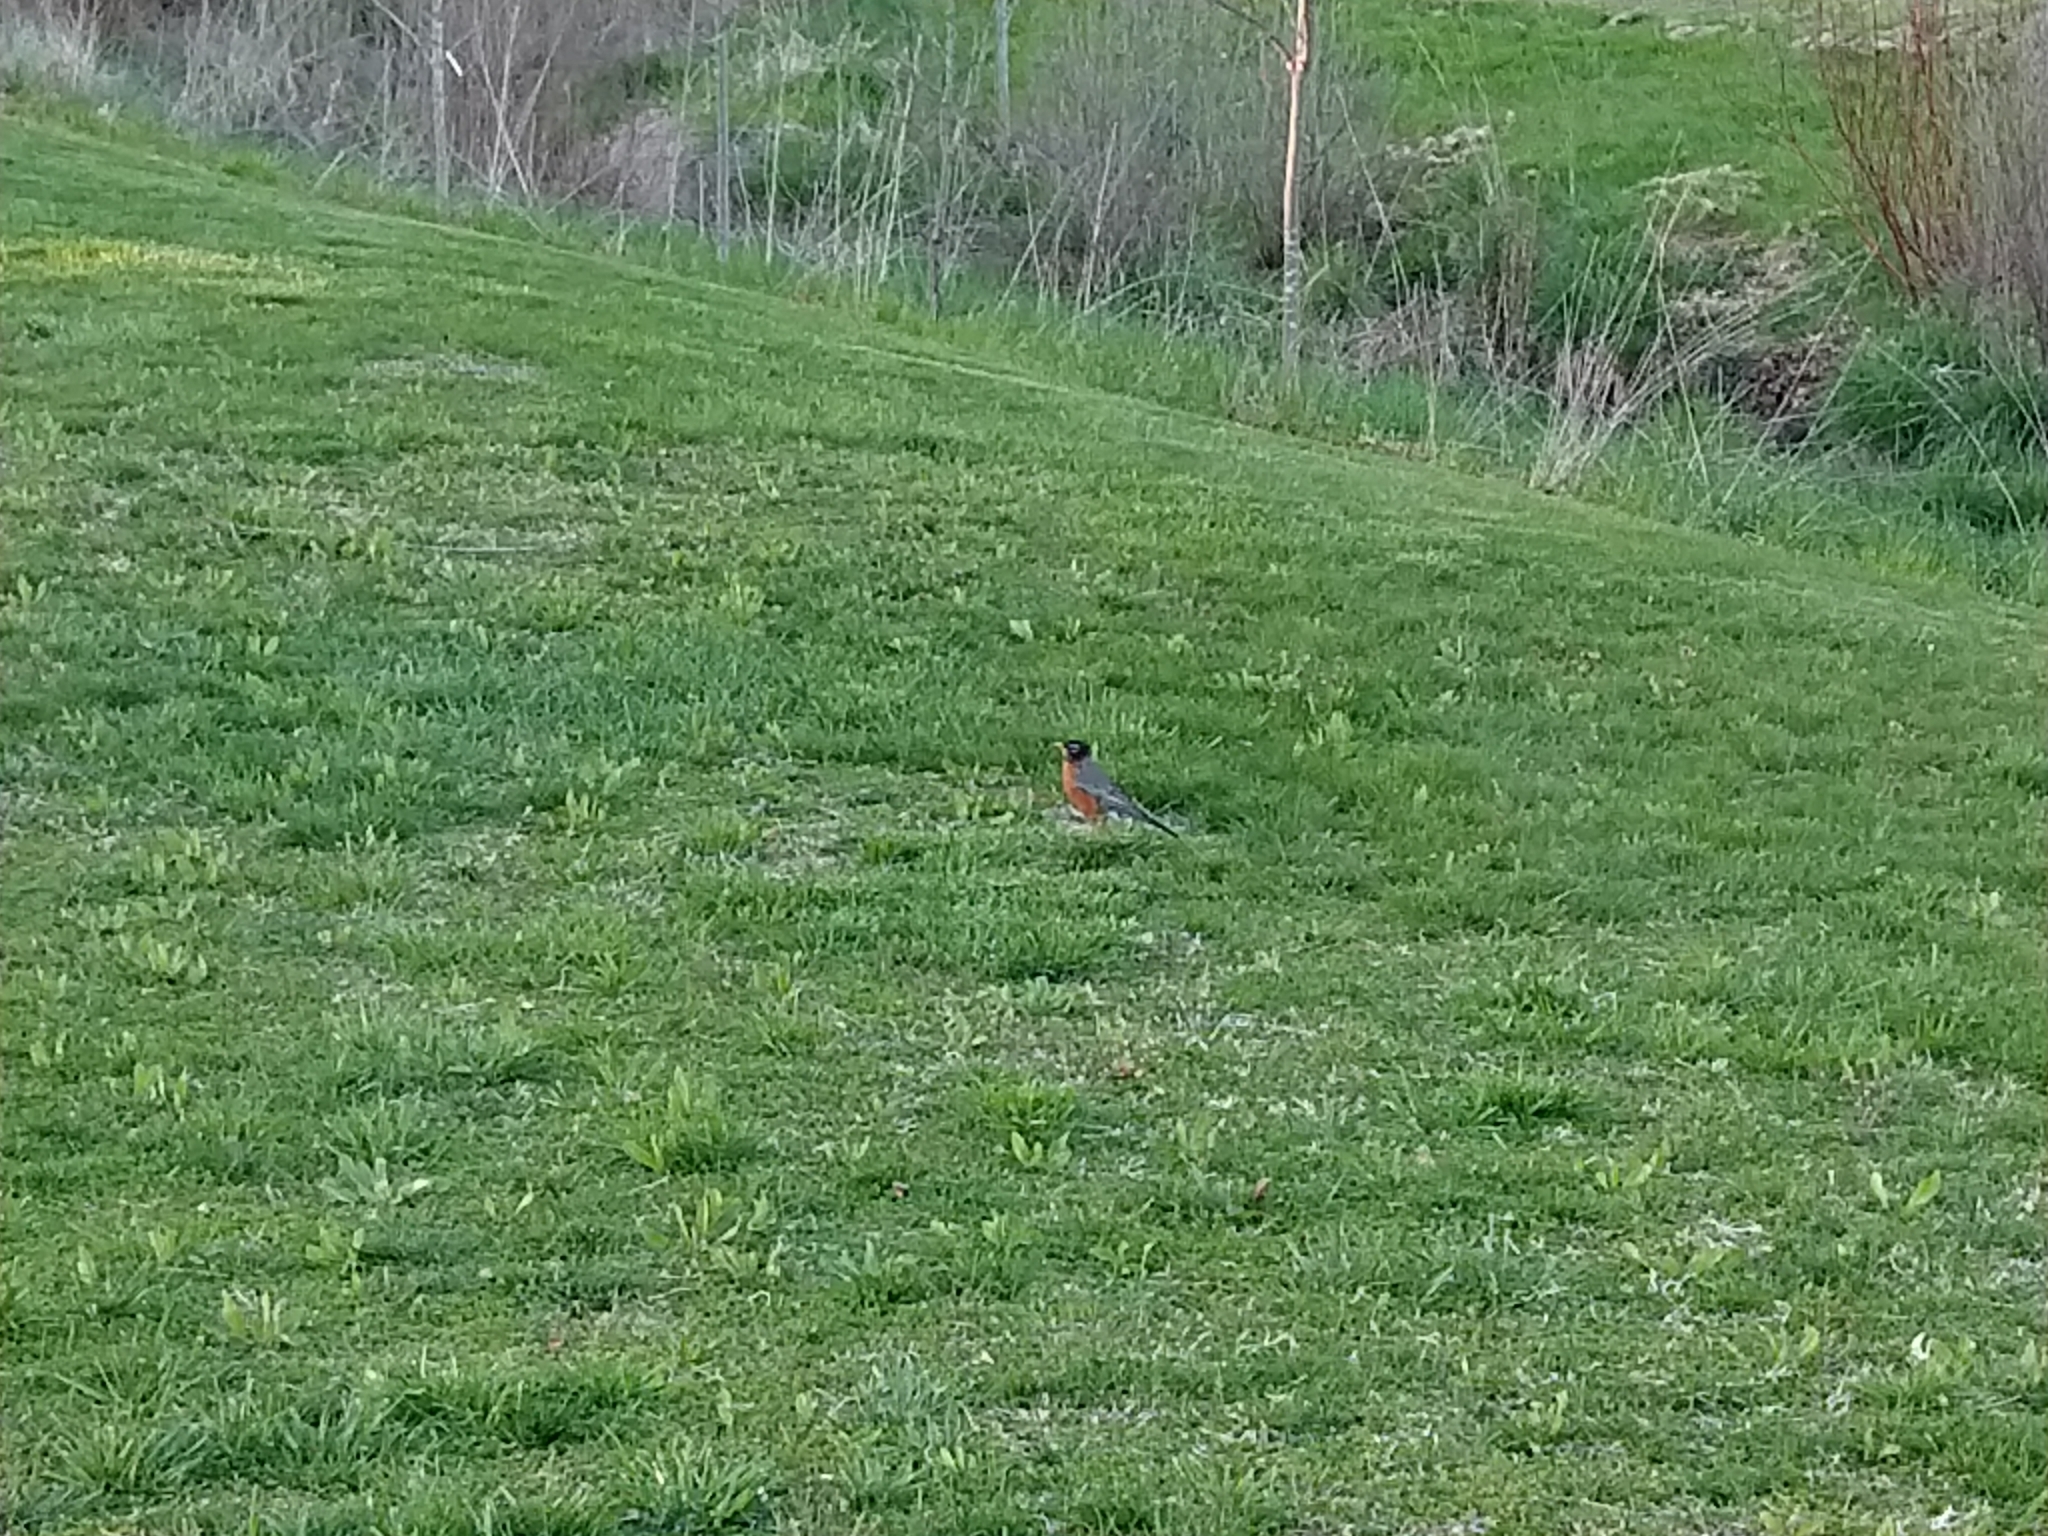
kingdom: Animalia
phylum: Chordata
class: Aves
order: Passeriformes
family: Turdidae
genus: Turdus
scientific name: Turdus migratorius
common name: American robin
